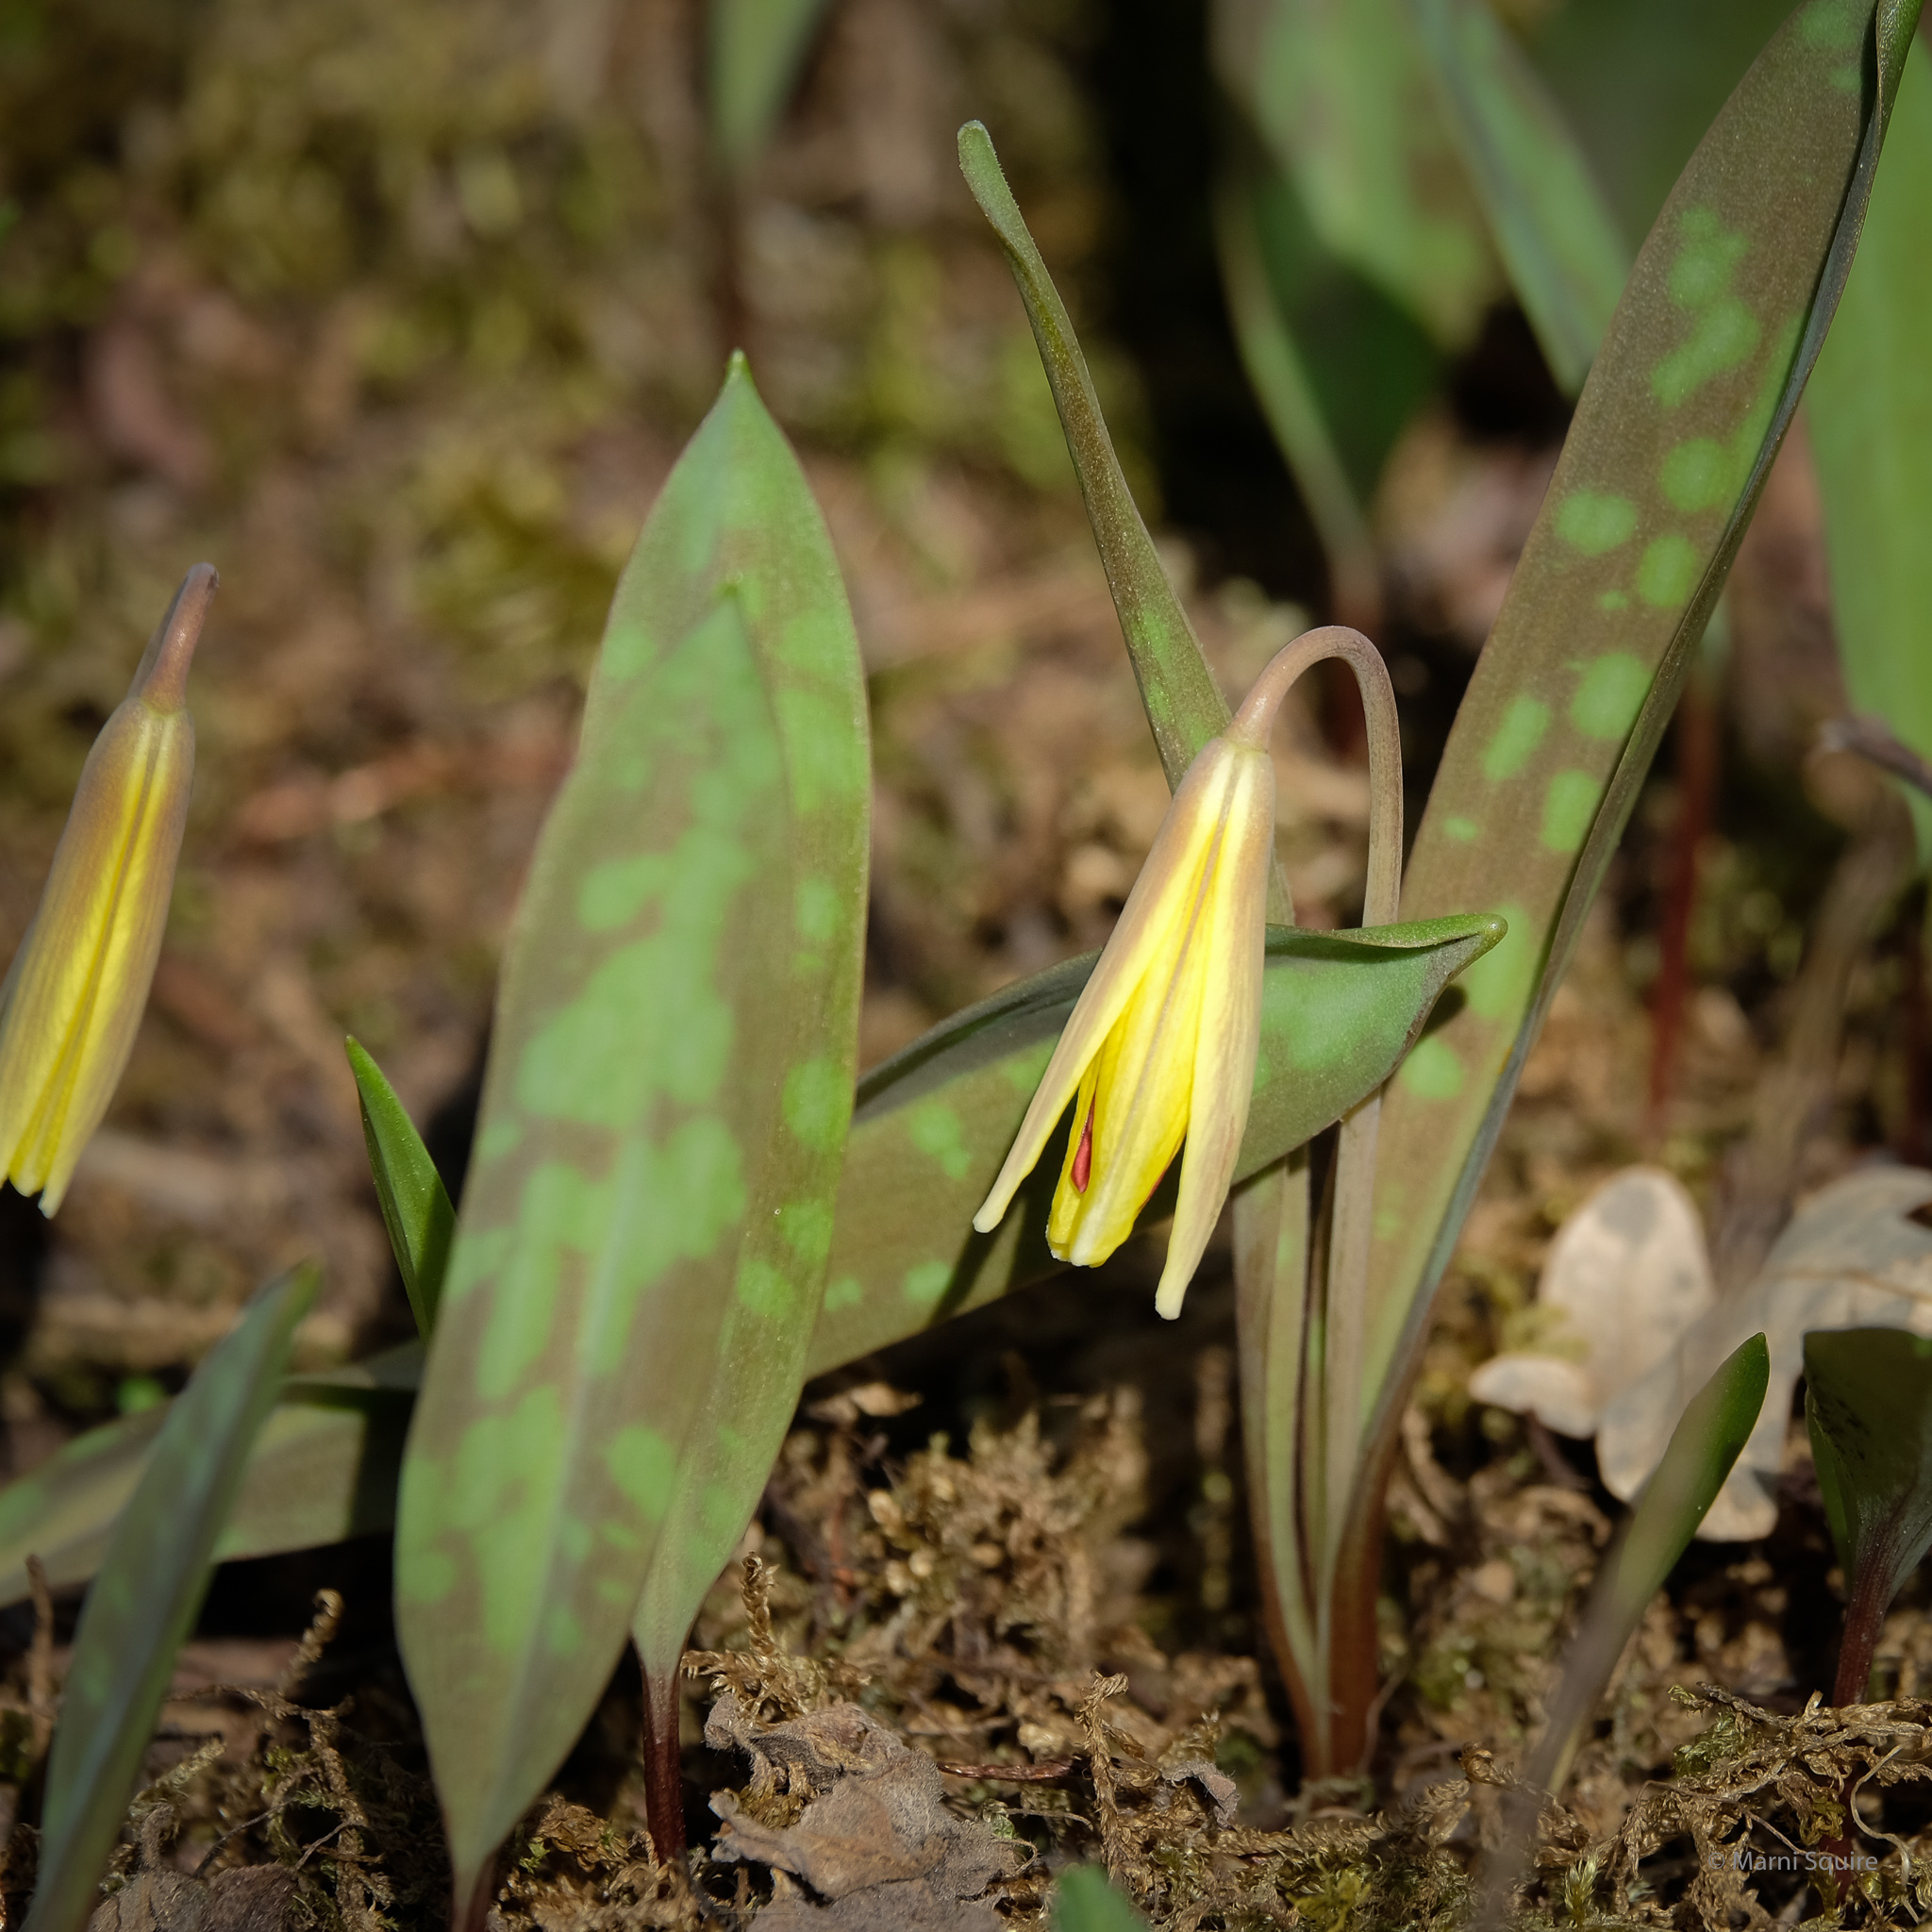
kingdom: Plantae
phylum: Tracheophyta
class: Liliopsida
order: Liliales
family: Liliaceae
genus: Erythronium
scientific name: Erythronium americanum
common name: Yellow adder's-tongue
